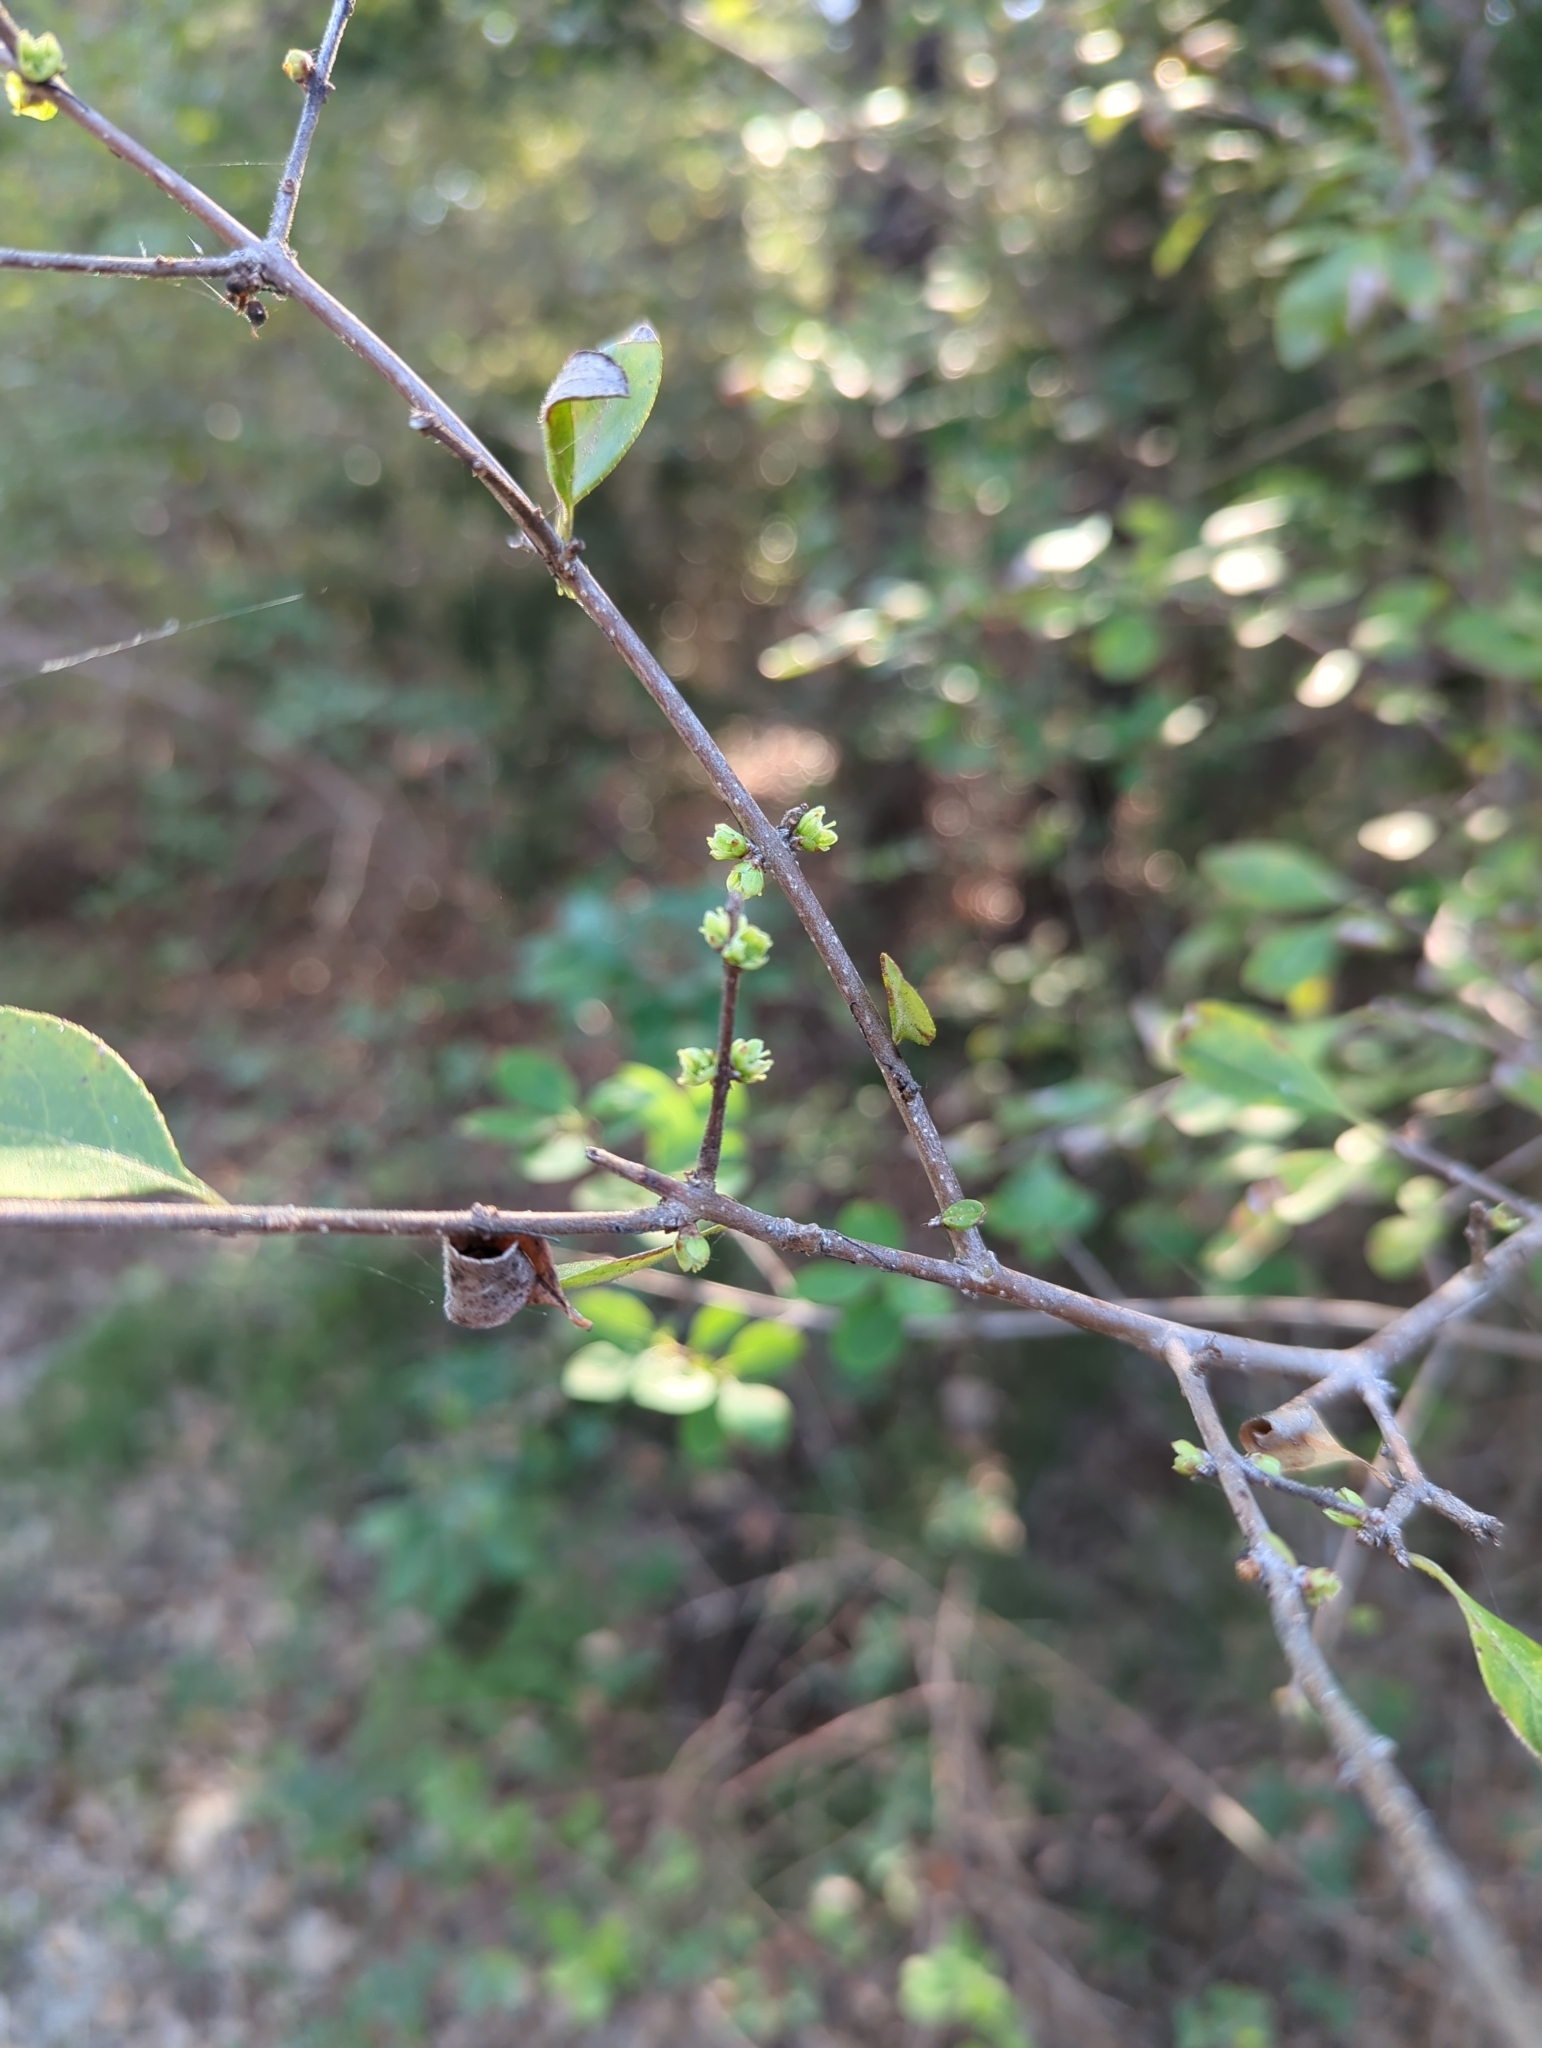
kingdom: Plantae
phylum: Tracheophyta
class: Magnoliopsida
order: Aquifoliales
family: Aquifoliaceae
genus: Ilex
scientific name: Ilex decidua
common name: Possum-haw
